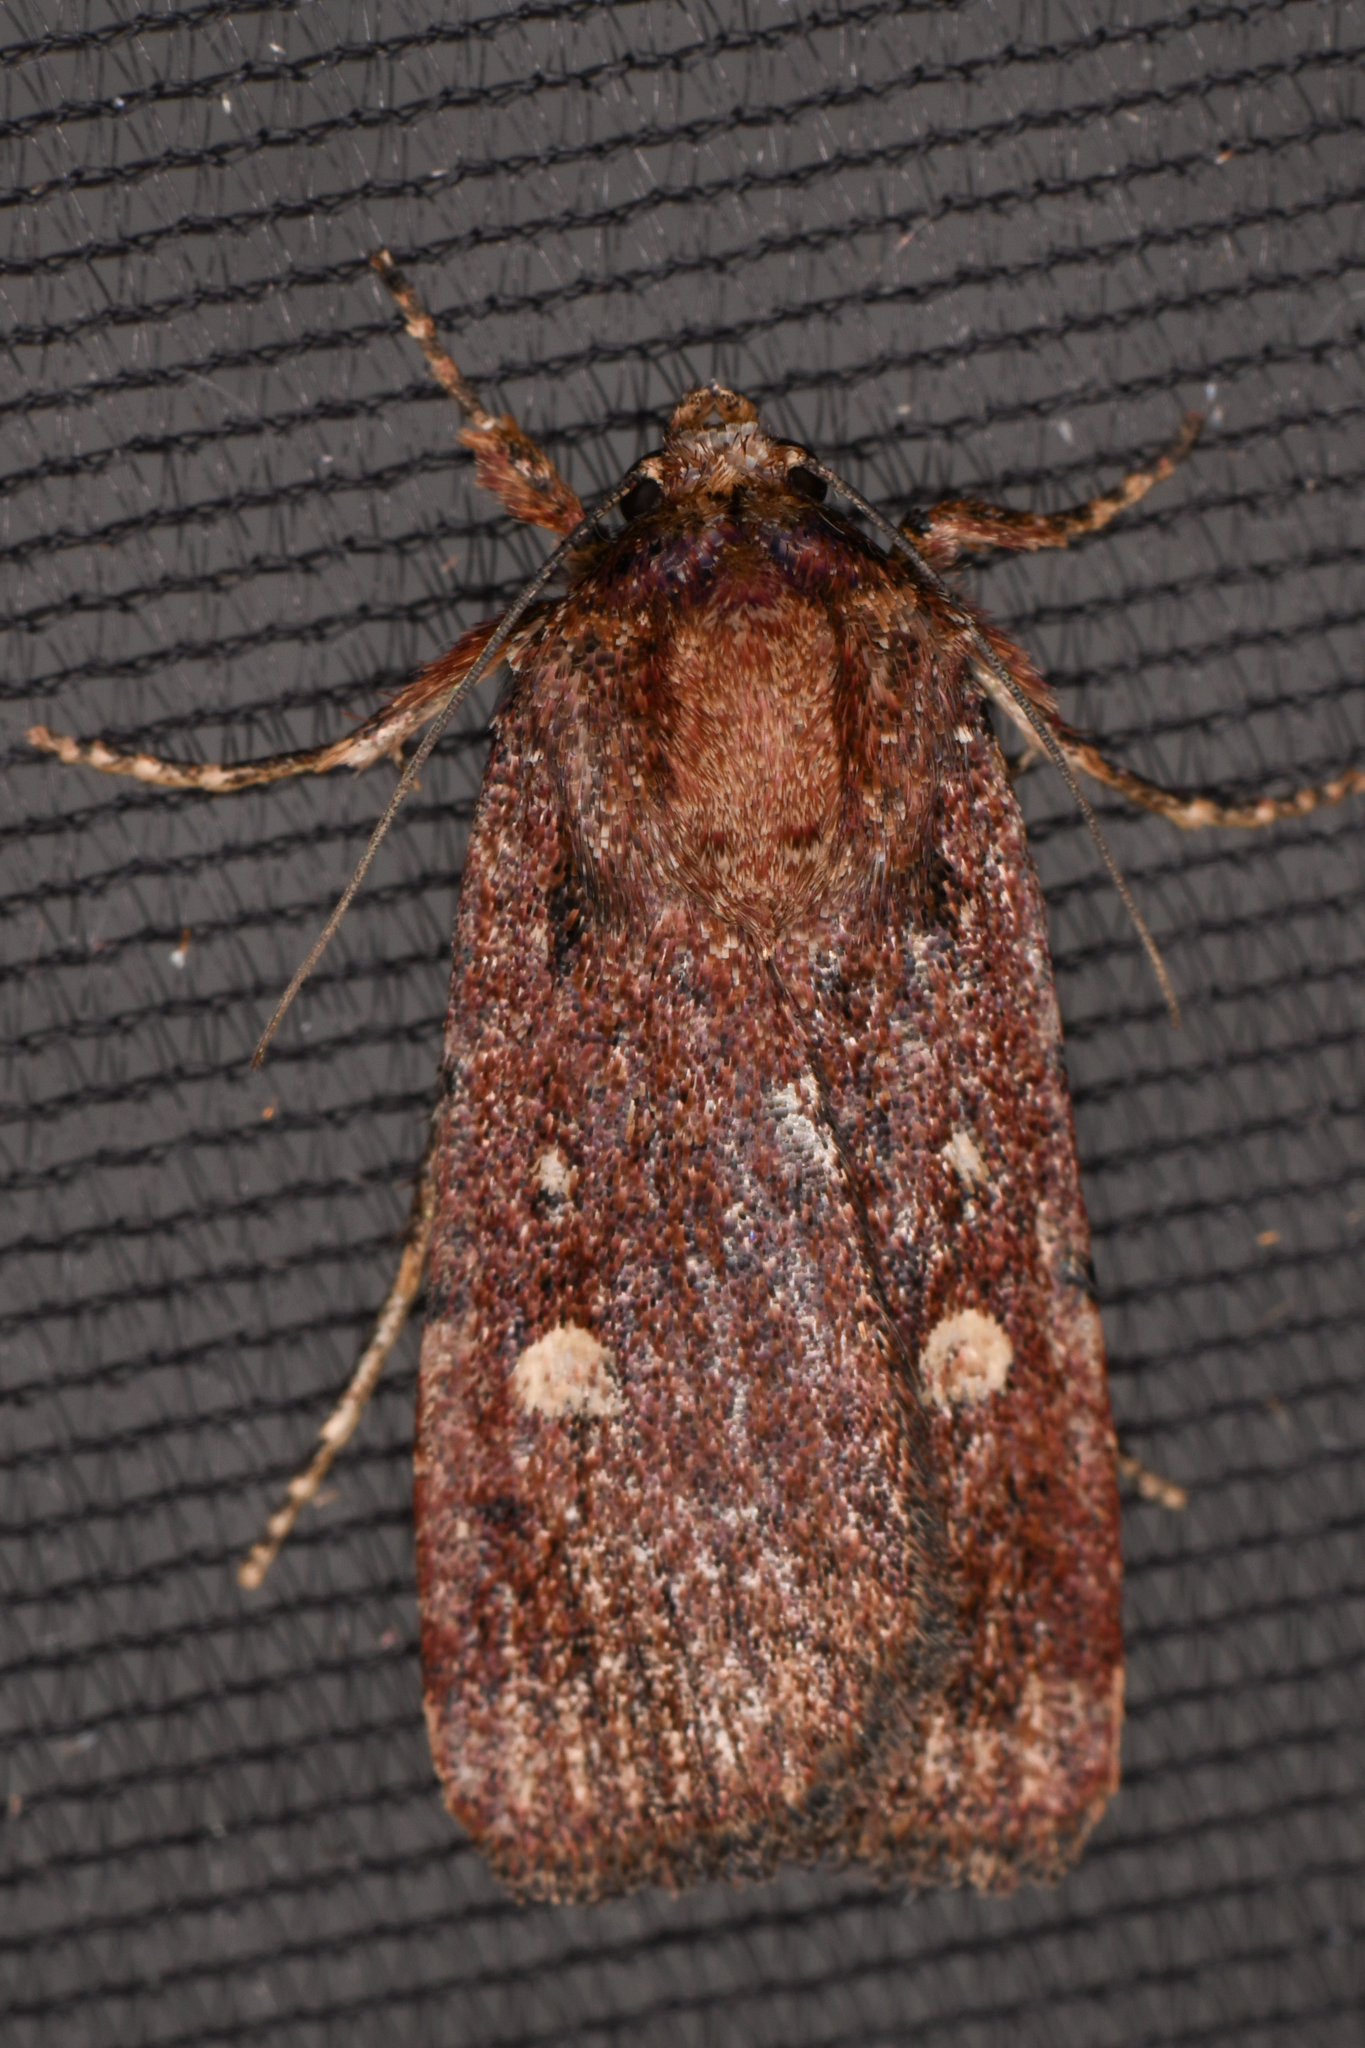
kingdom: Animalia
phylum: Arthropoda
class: Insecta
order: Lepidoptera
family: Noctuidae
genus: Abagrotis
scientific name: Abagrotis rubricundis
